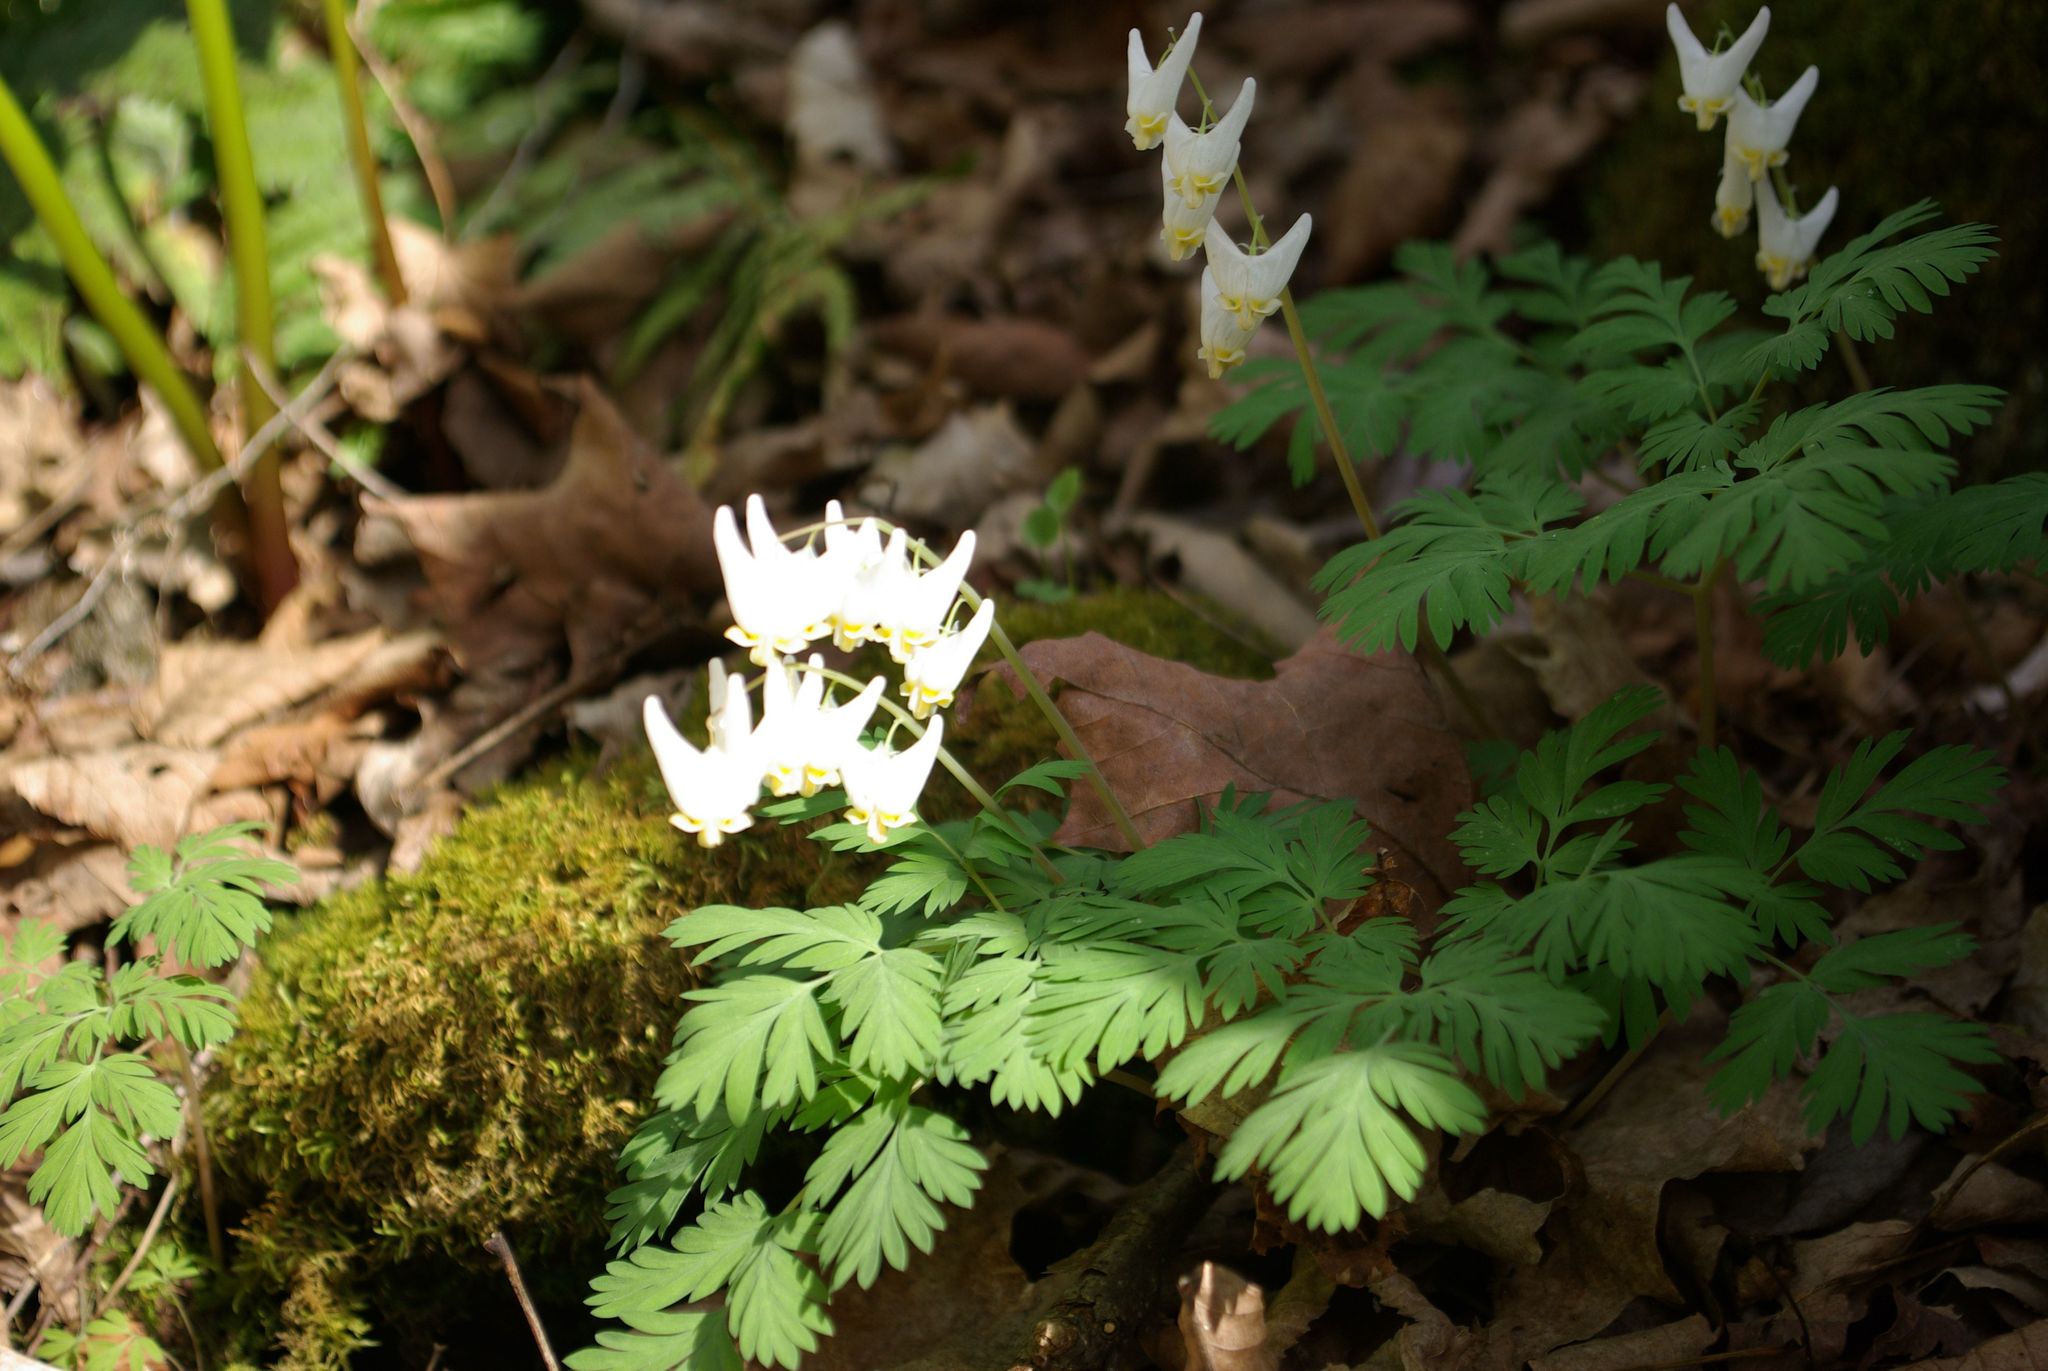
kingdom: Plantae
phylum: Tracheophyta
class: Magnoliopsida
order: Ranunculales
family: Papaveraceae
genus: Dicentra
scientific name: Dicentra cucullaria
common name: Dutchman's breeches
